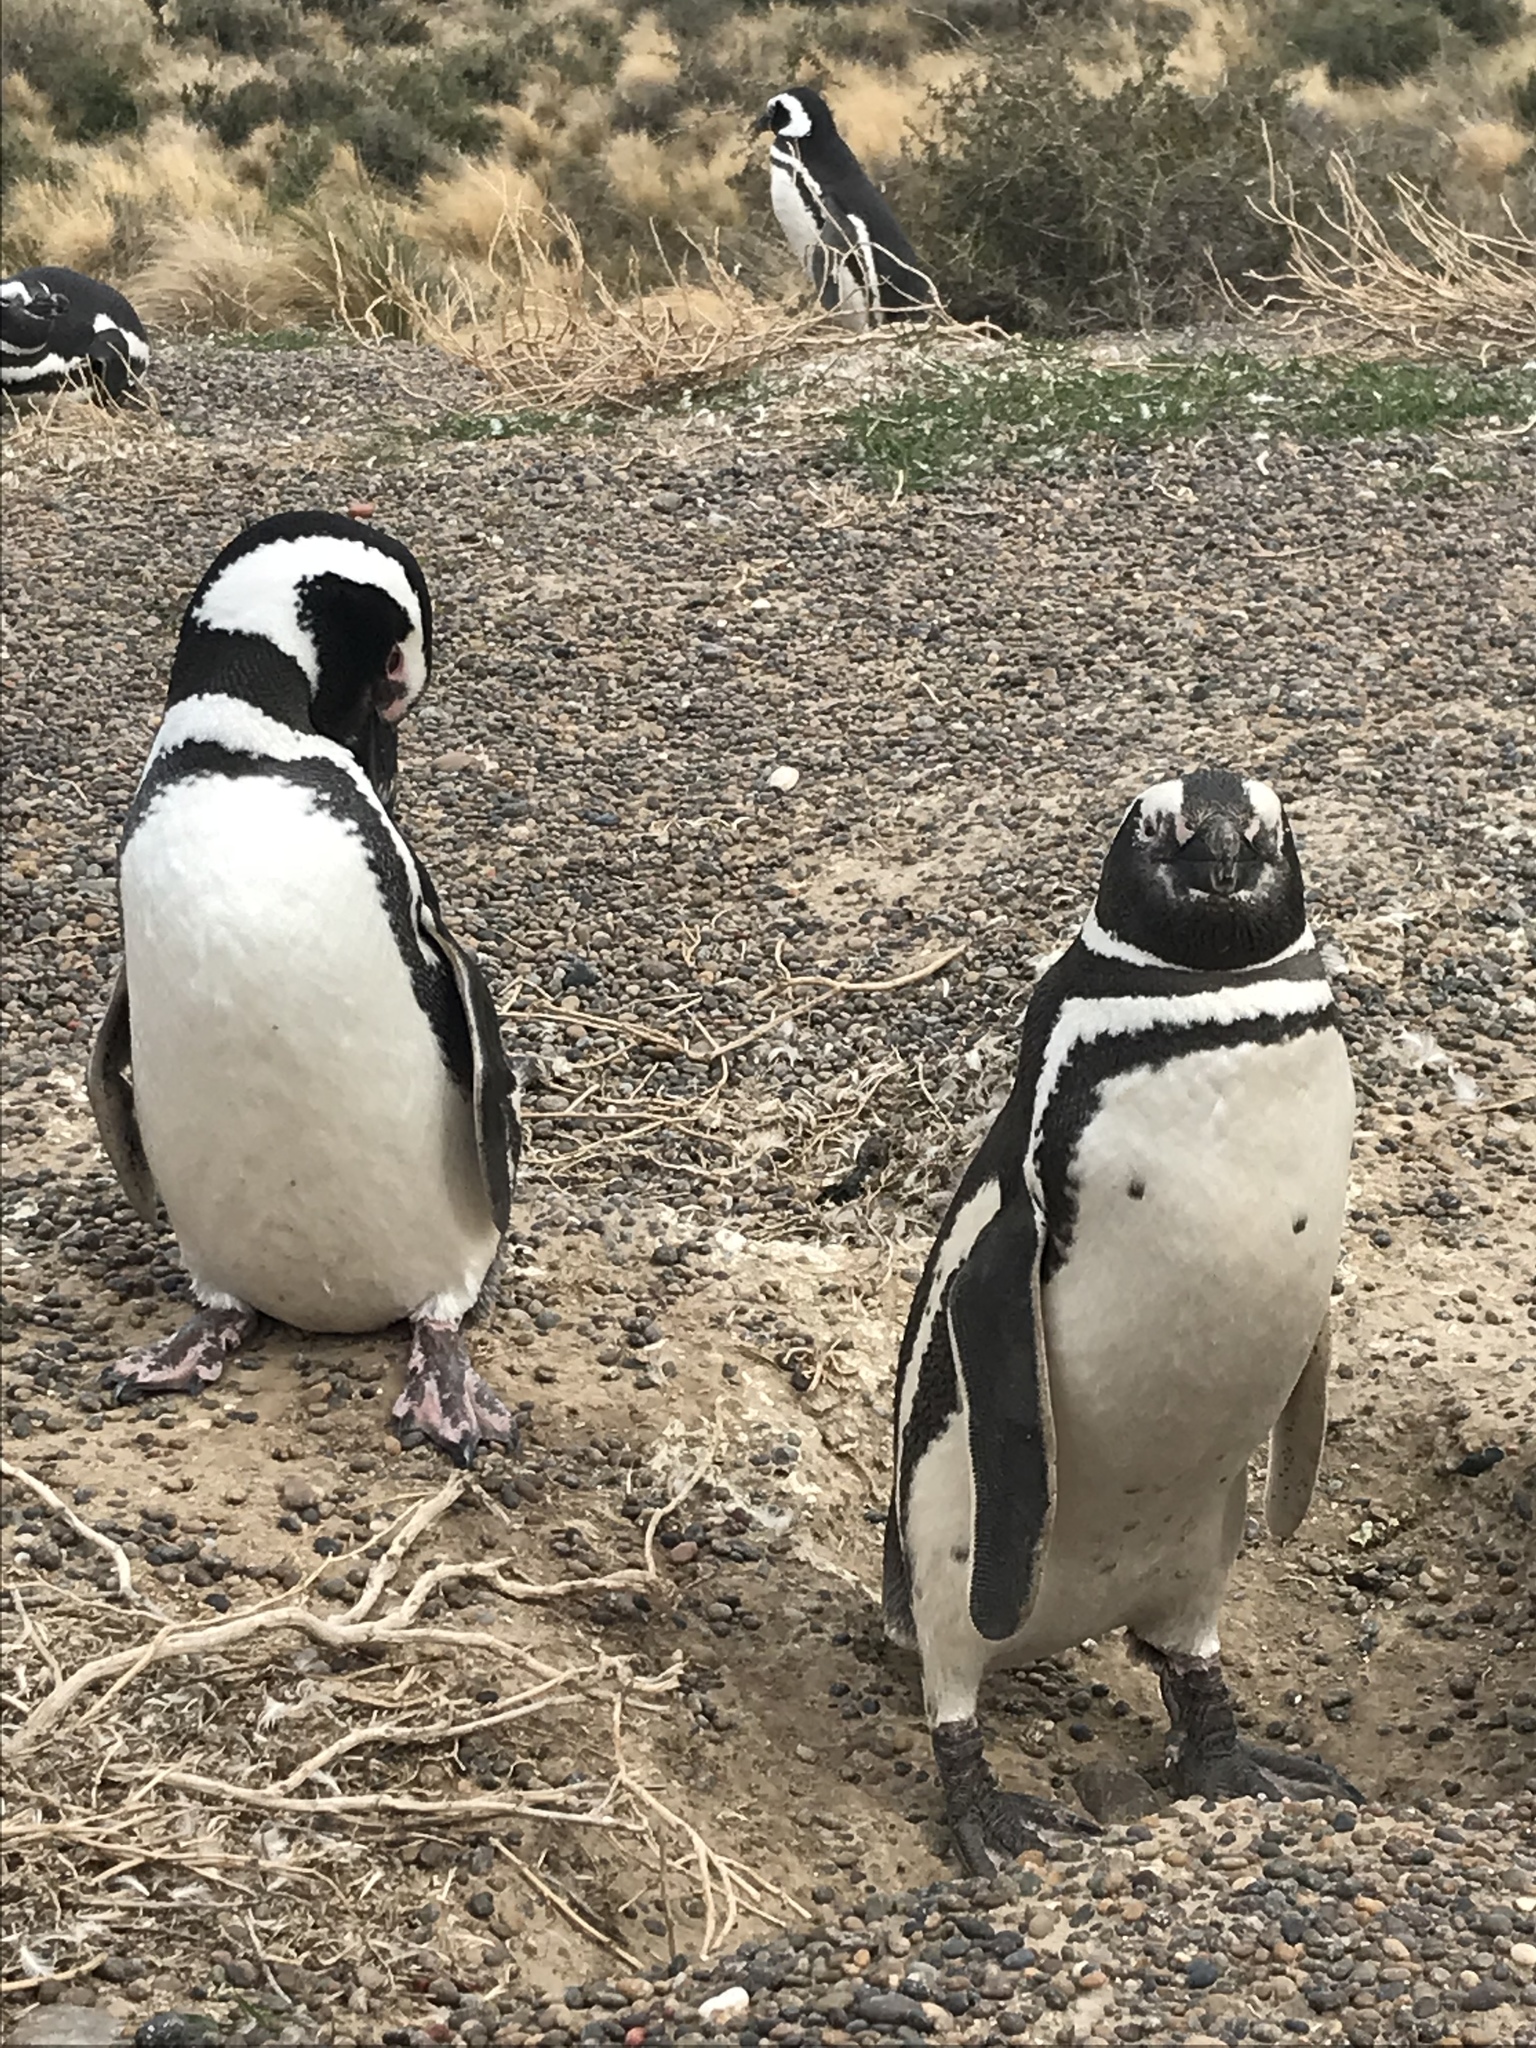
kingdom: Animalia
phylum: Chordata
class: Aves
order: Sphenisciformes
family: Spheniscidae
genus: Spheniscus
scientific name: Spheniscus magellanicus
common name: Magellanic penguin
